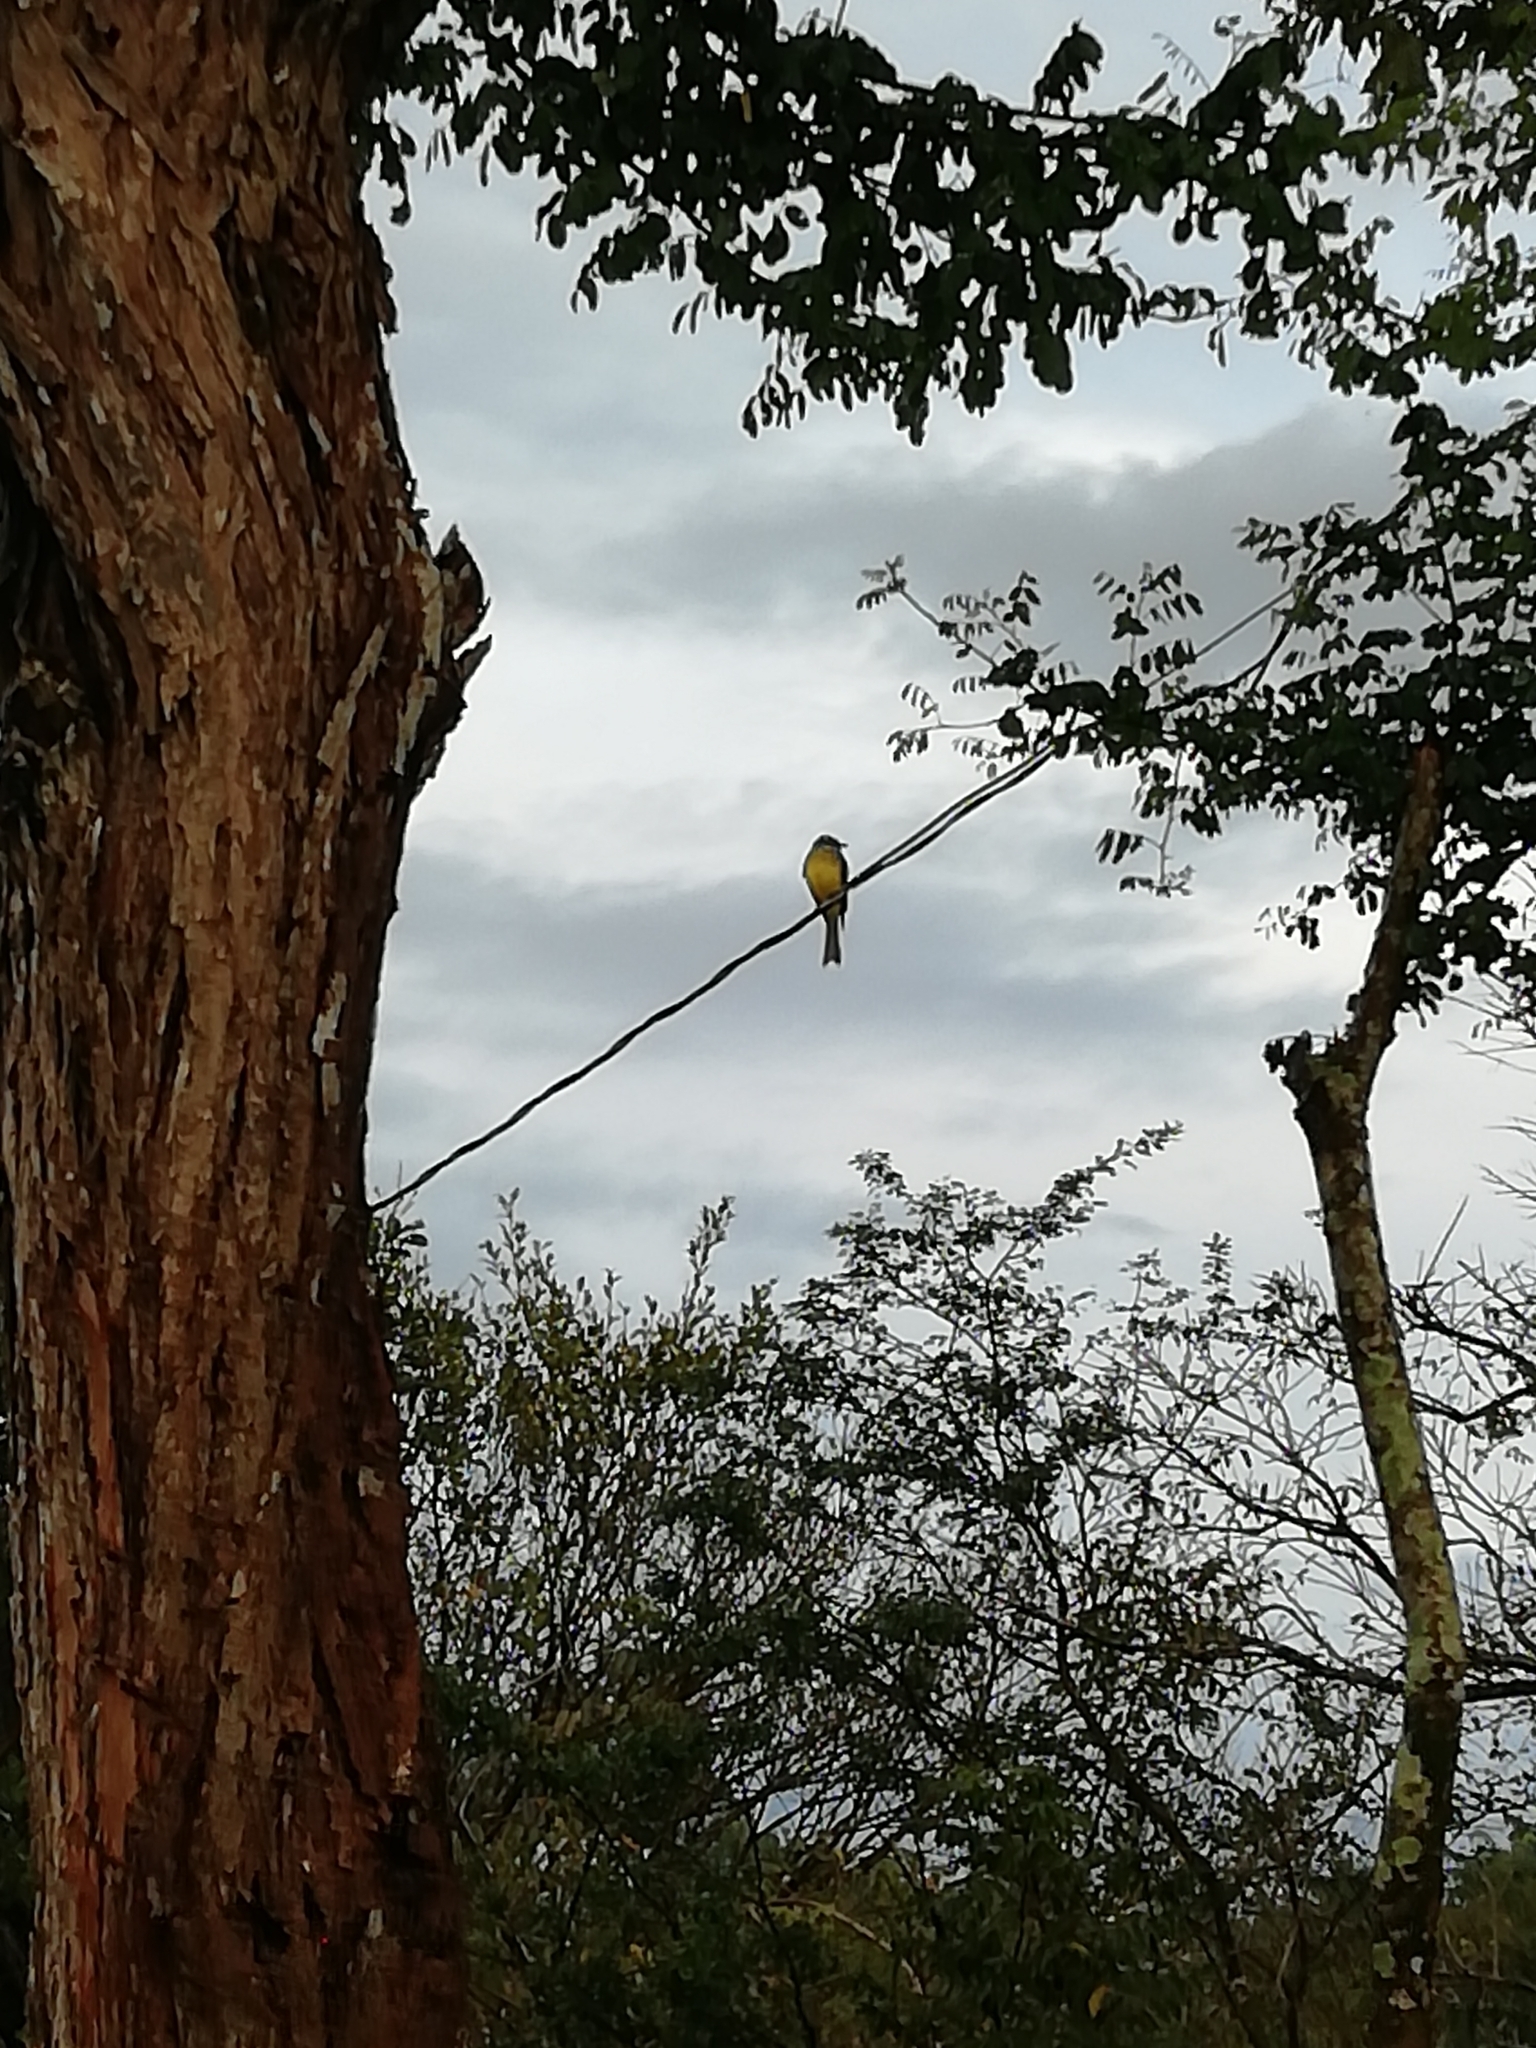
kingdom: Animalia
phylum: Chordata
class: Aves
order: Passeriformes
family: Tyrannidae
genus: Tyrannus
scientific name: Tyrannus melancholicus
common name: Tropical kingbird
